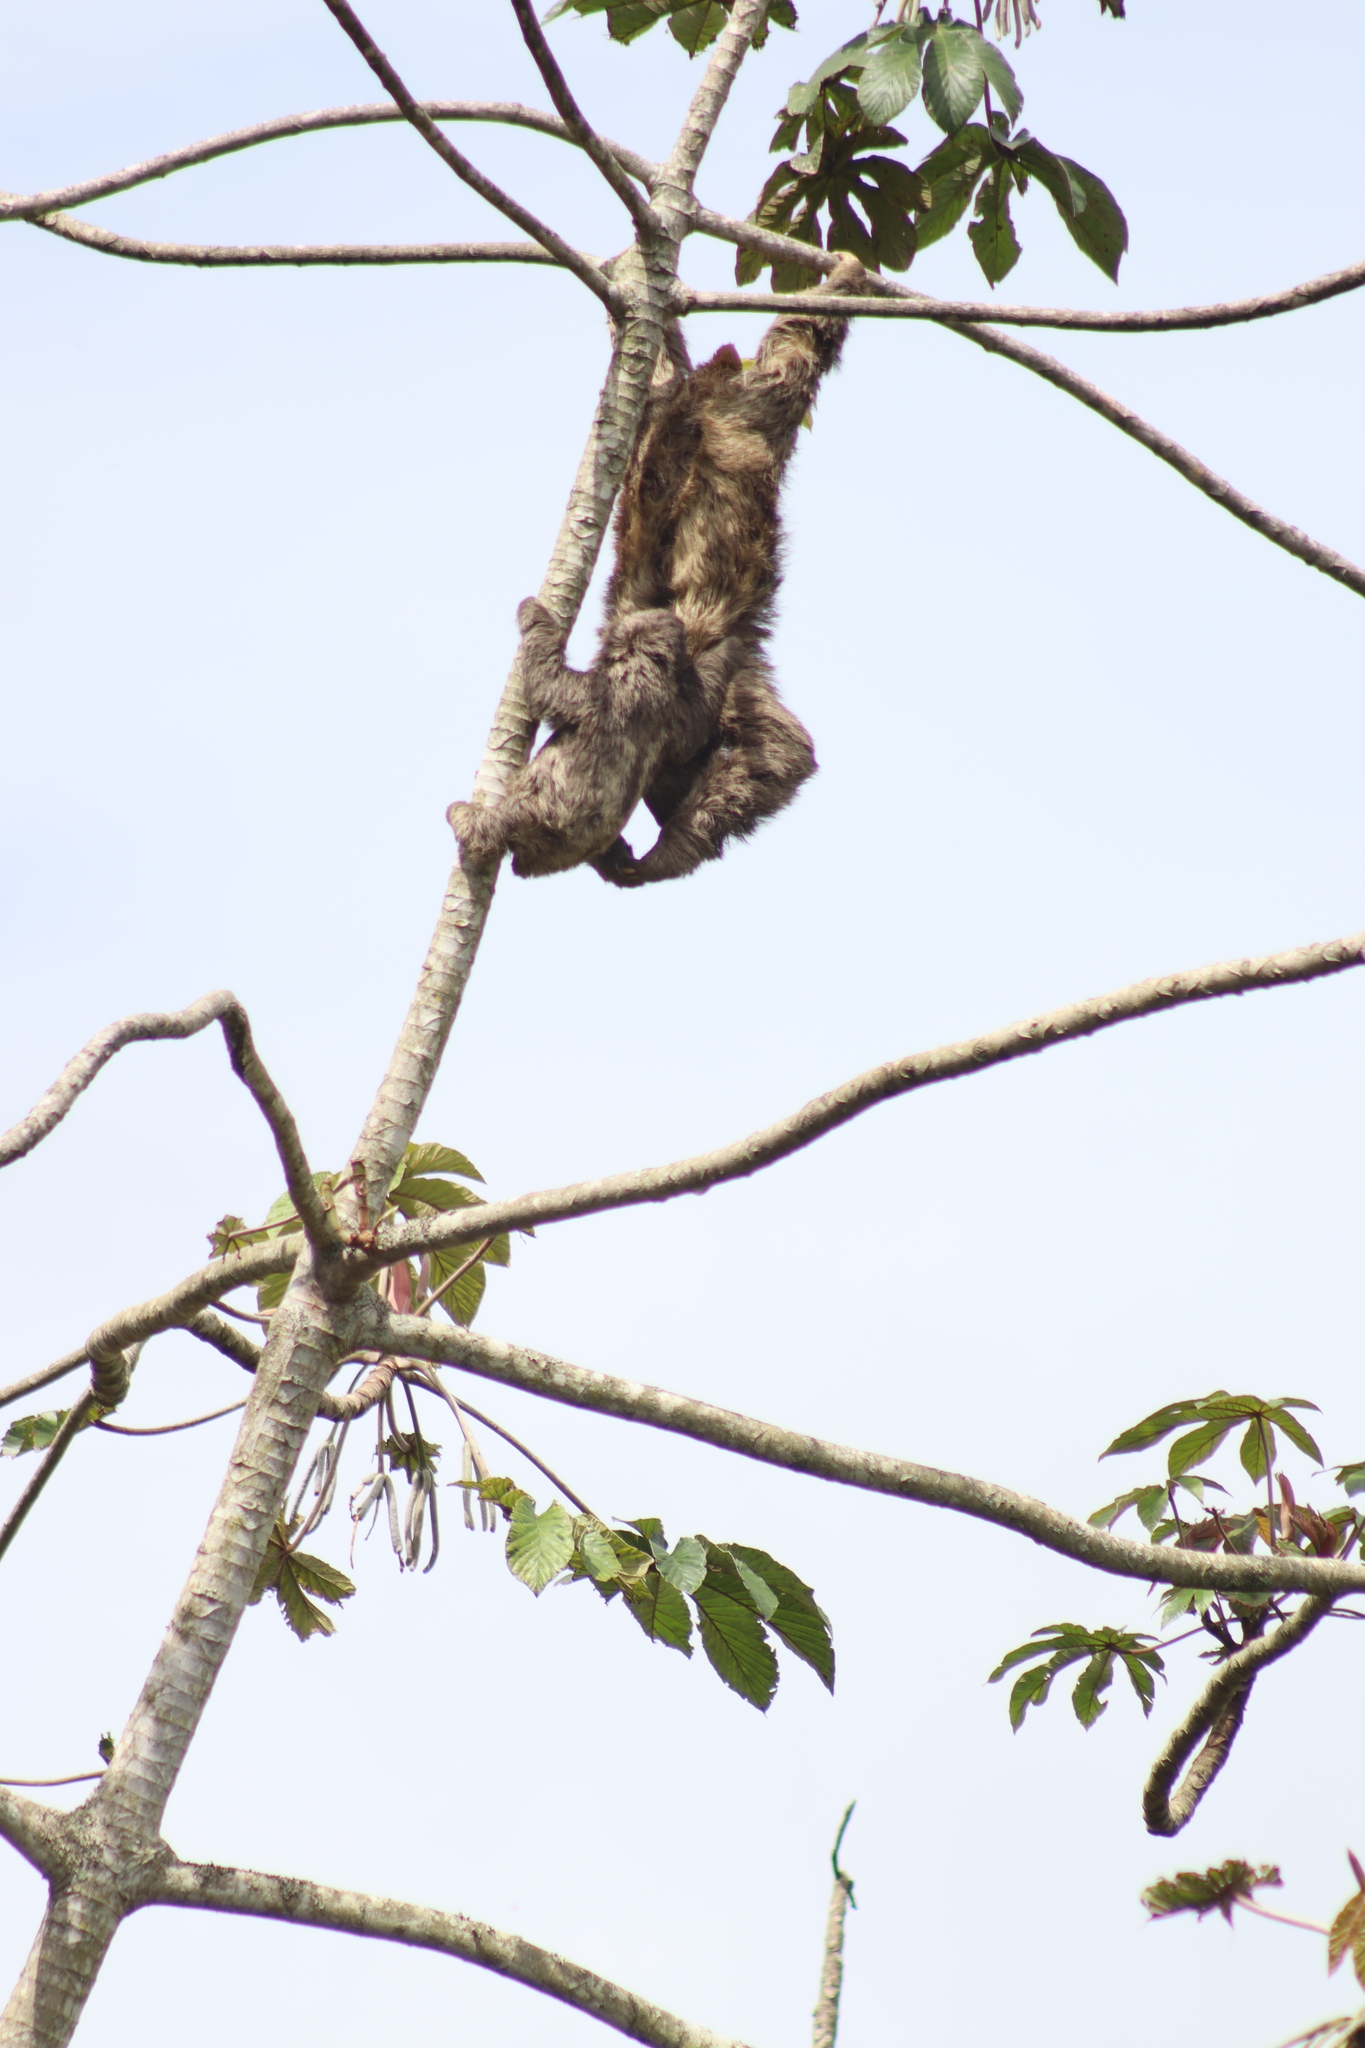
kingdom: Animalia
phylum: Chordata
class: Mammalia
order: Pilosa
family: Bradypodidae
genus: Bradypus
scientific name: Bradypus variegatus
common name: Brown-throated three-toed sloth
